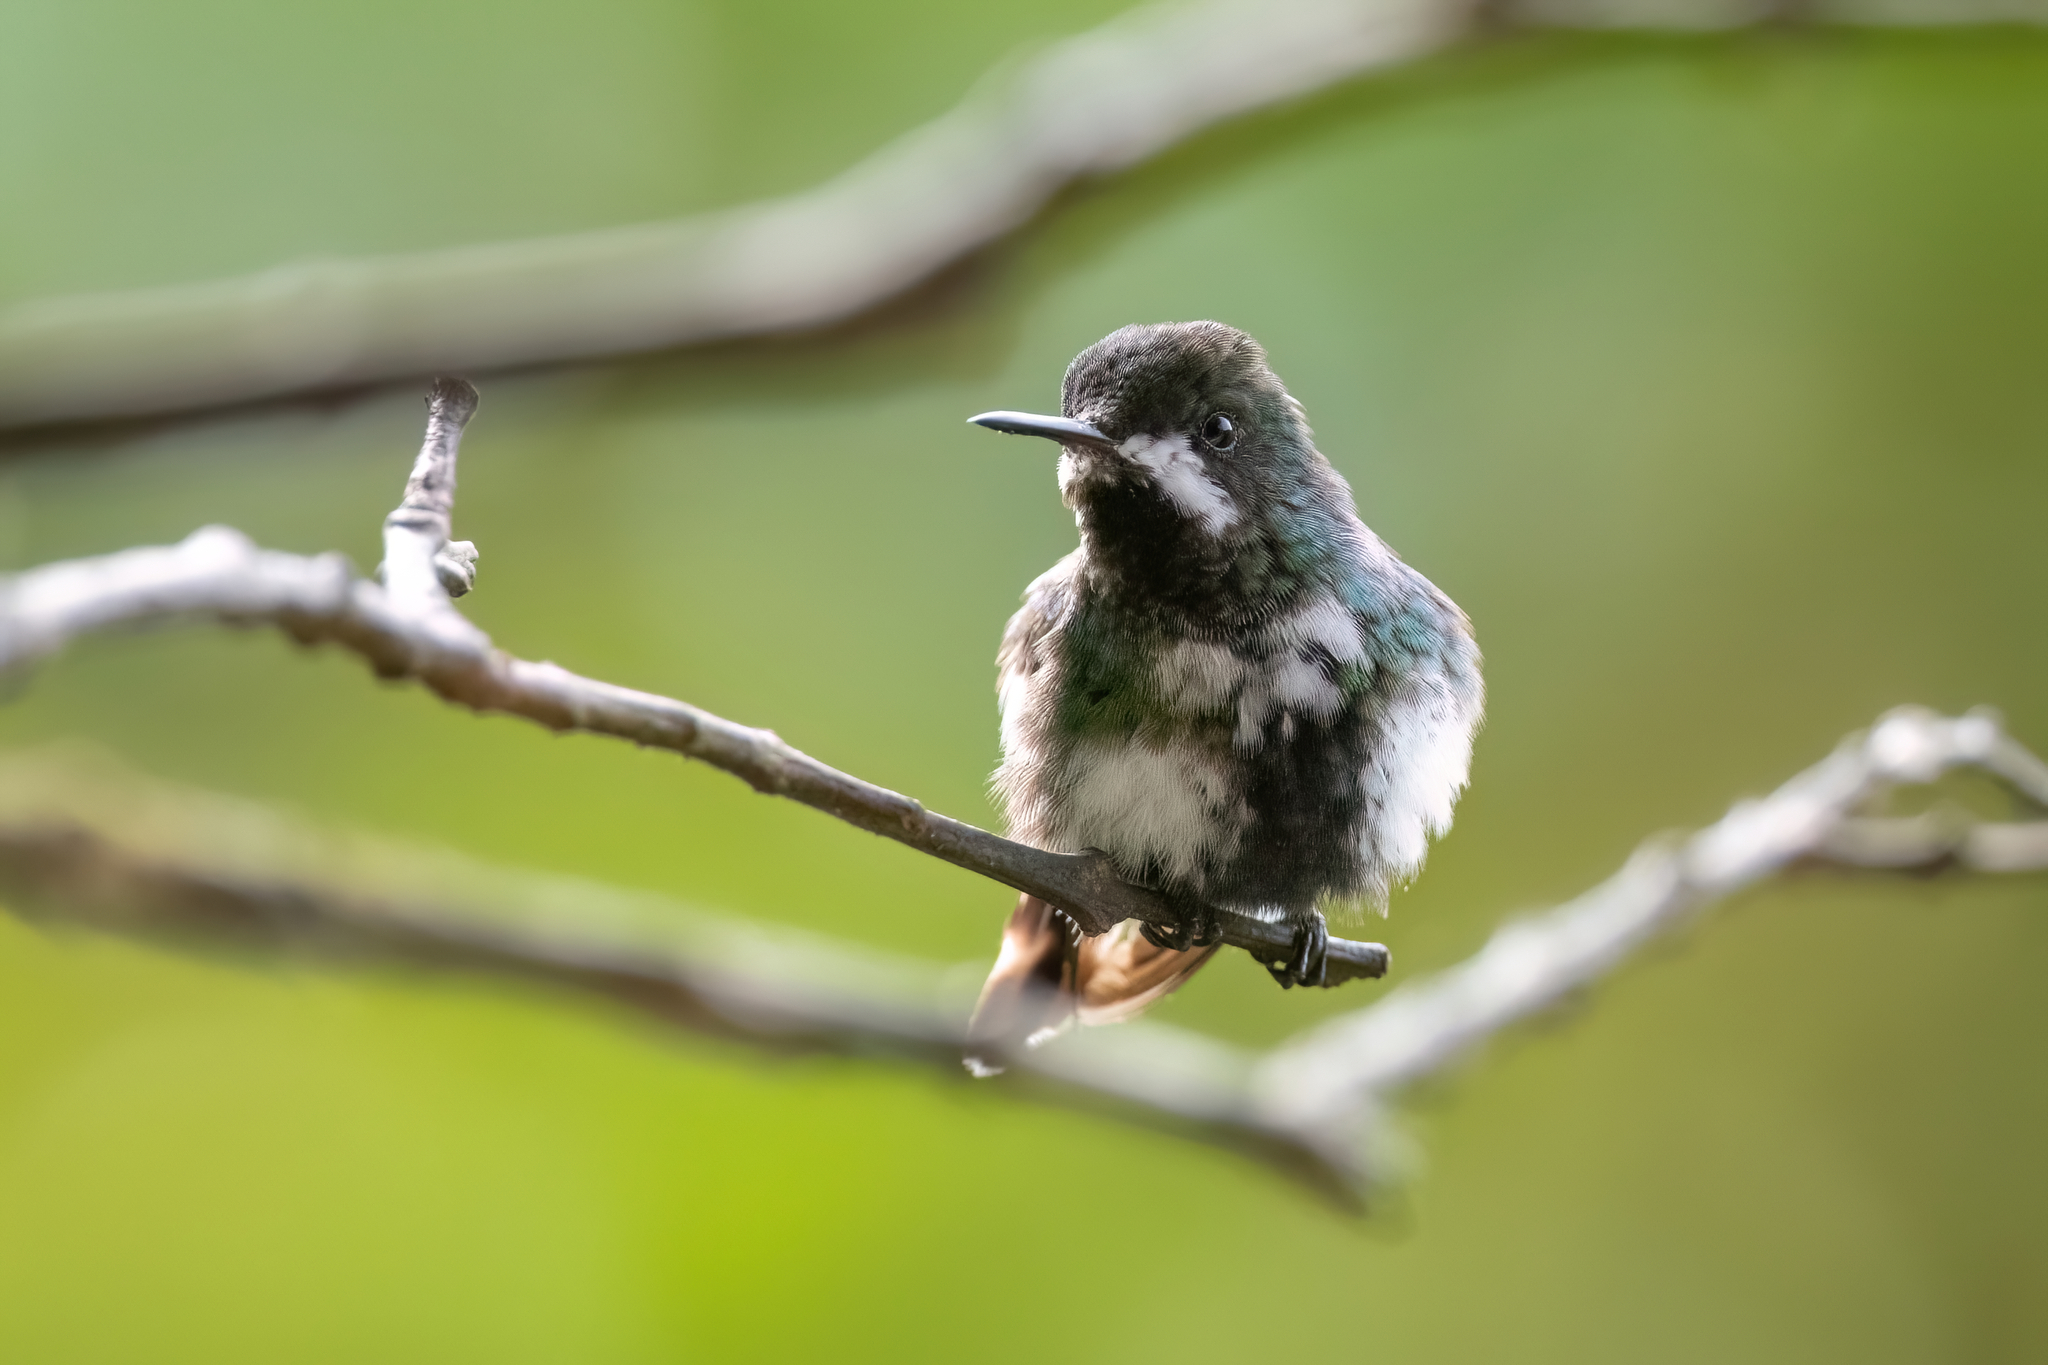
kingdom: Animalia
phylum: Chordata
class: Aves
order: Apodiformes
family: Trochilidae
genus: Discosura
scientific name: Discosura conversii
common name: Green thorntail
